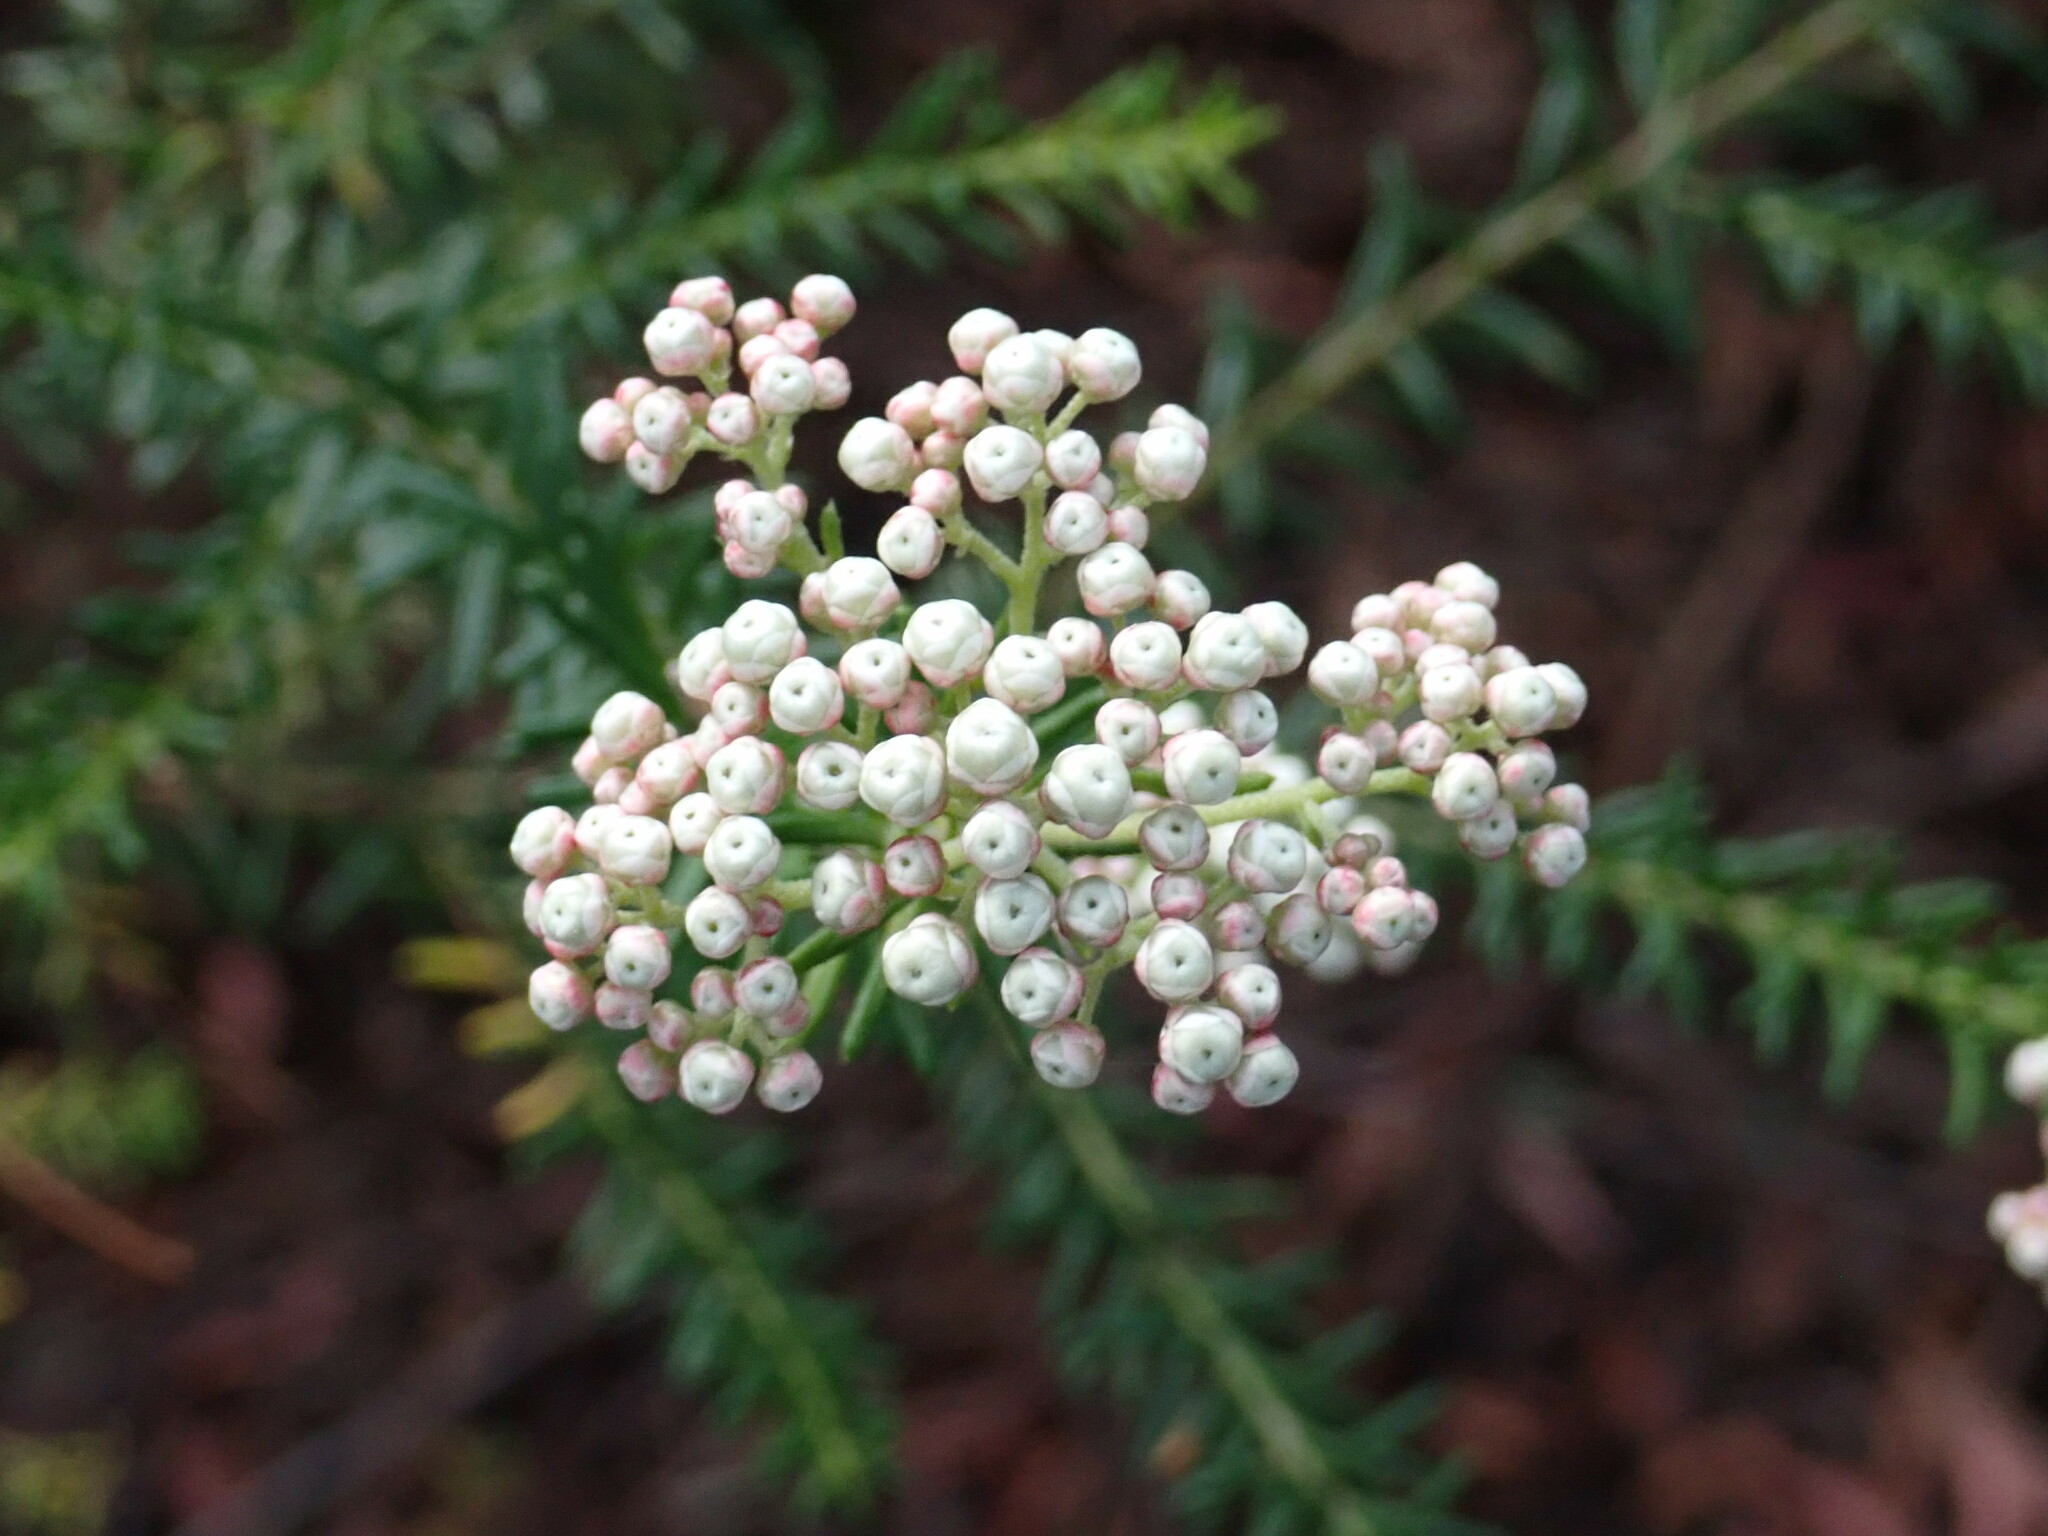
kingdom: Plantae
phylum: Tracheophyta
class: Magnoliopsida
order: Asterales
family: Asteraceae
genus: Ozothamnus
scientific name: Ozothamnus diosmifolius
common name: White-dogwood
